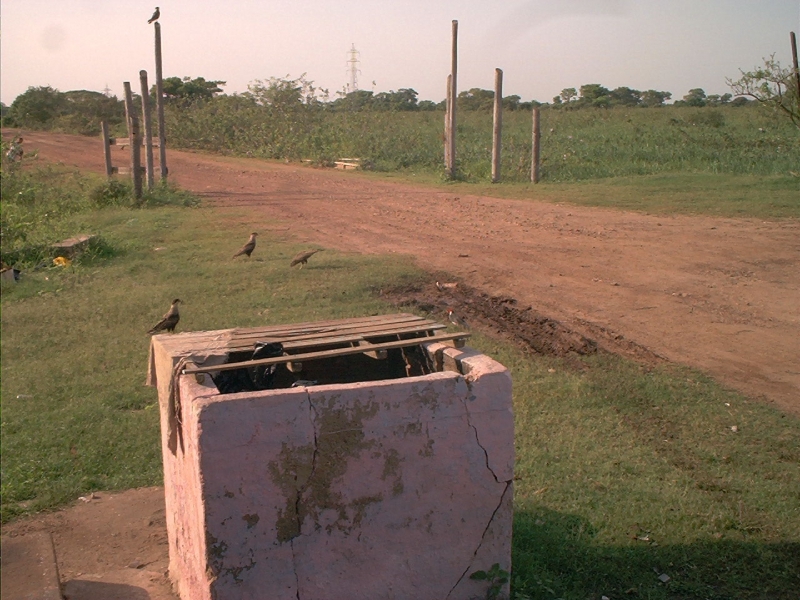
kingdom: Animalia
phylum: Chordata
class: Aves
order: Falconiformes
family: Falconidae
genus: Caracara
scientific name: Caracara plancus
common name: Southern caracara
